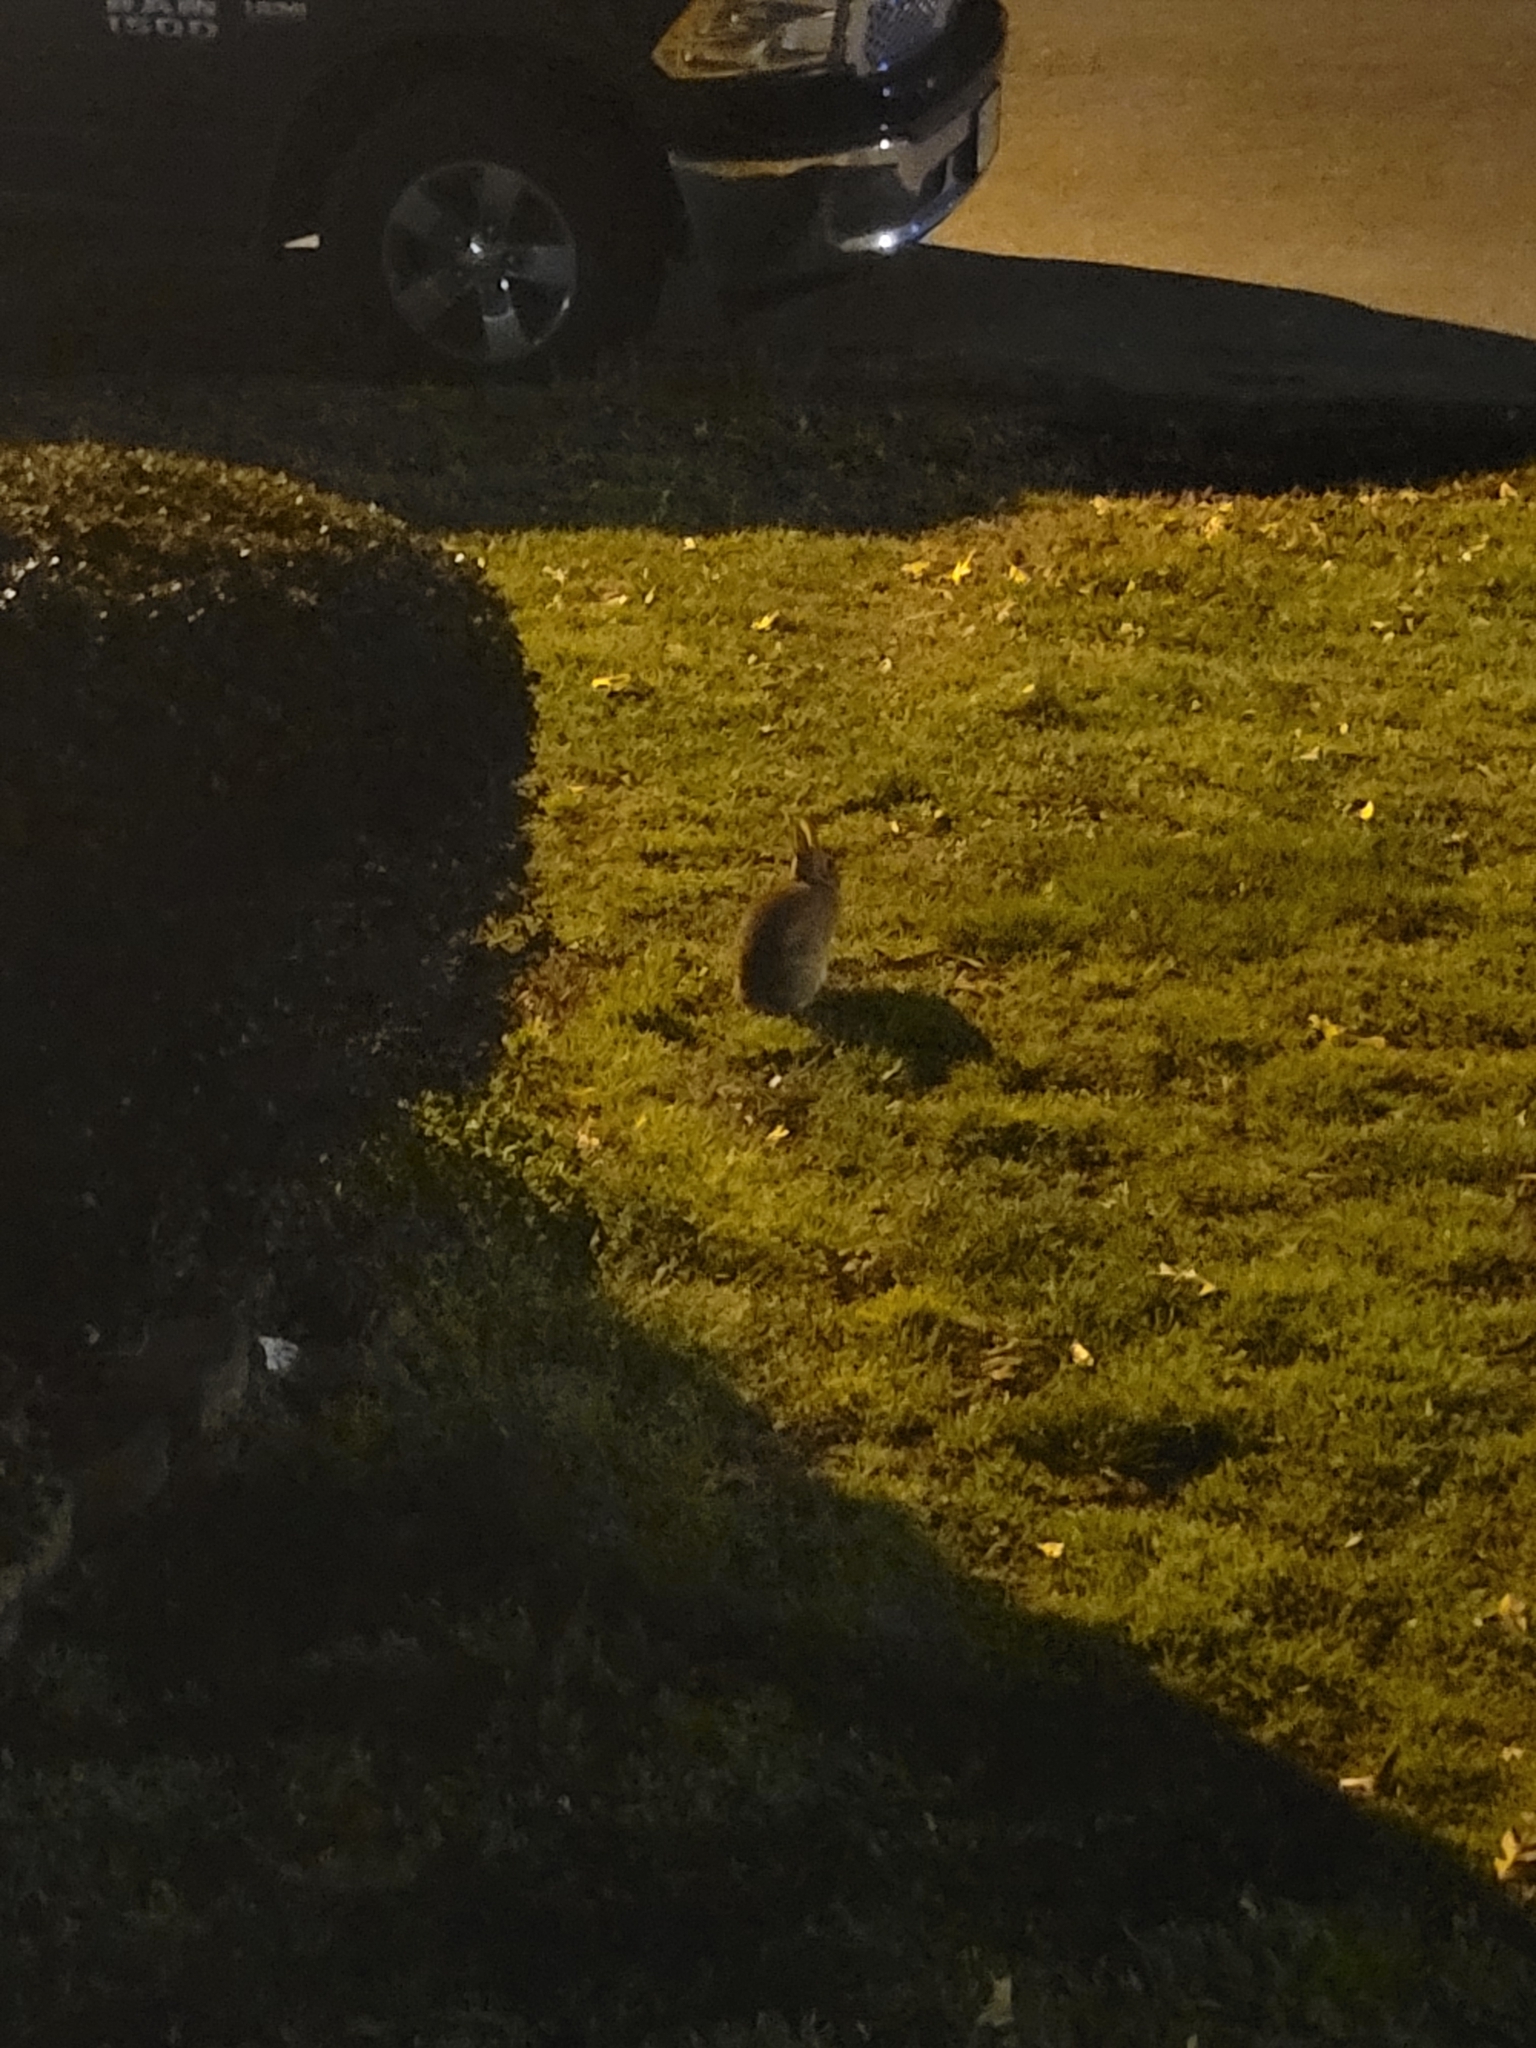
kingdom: Animalia
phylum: Chordata
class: Mammalia
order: Lagomorpha
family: Leporidae
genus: Sylvilagus
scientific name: Sylvilagus floridanus
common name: Eastern cottontail
